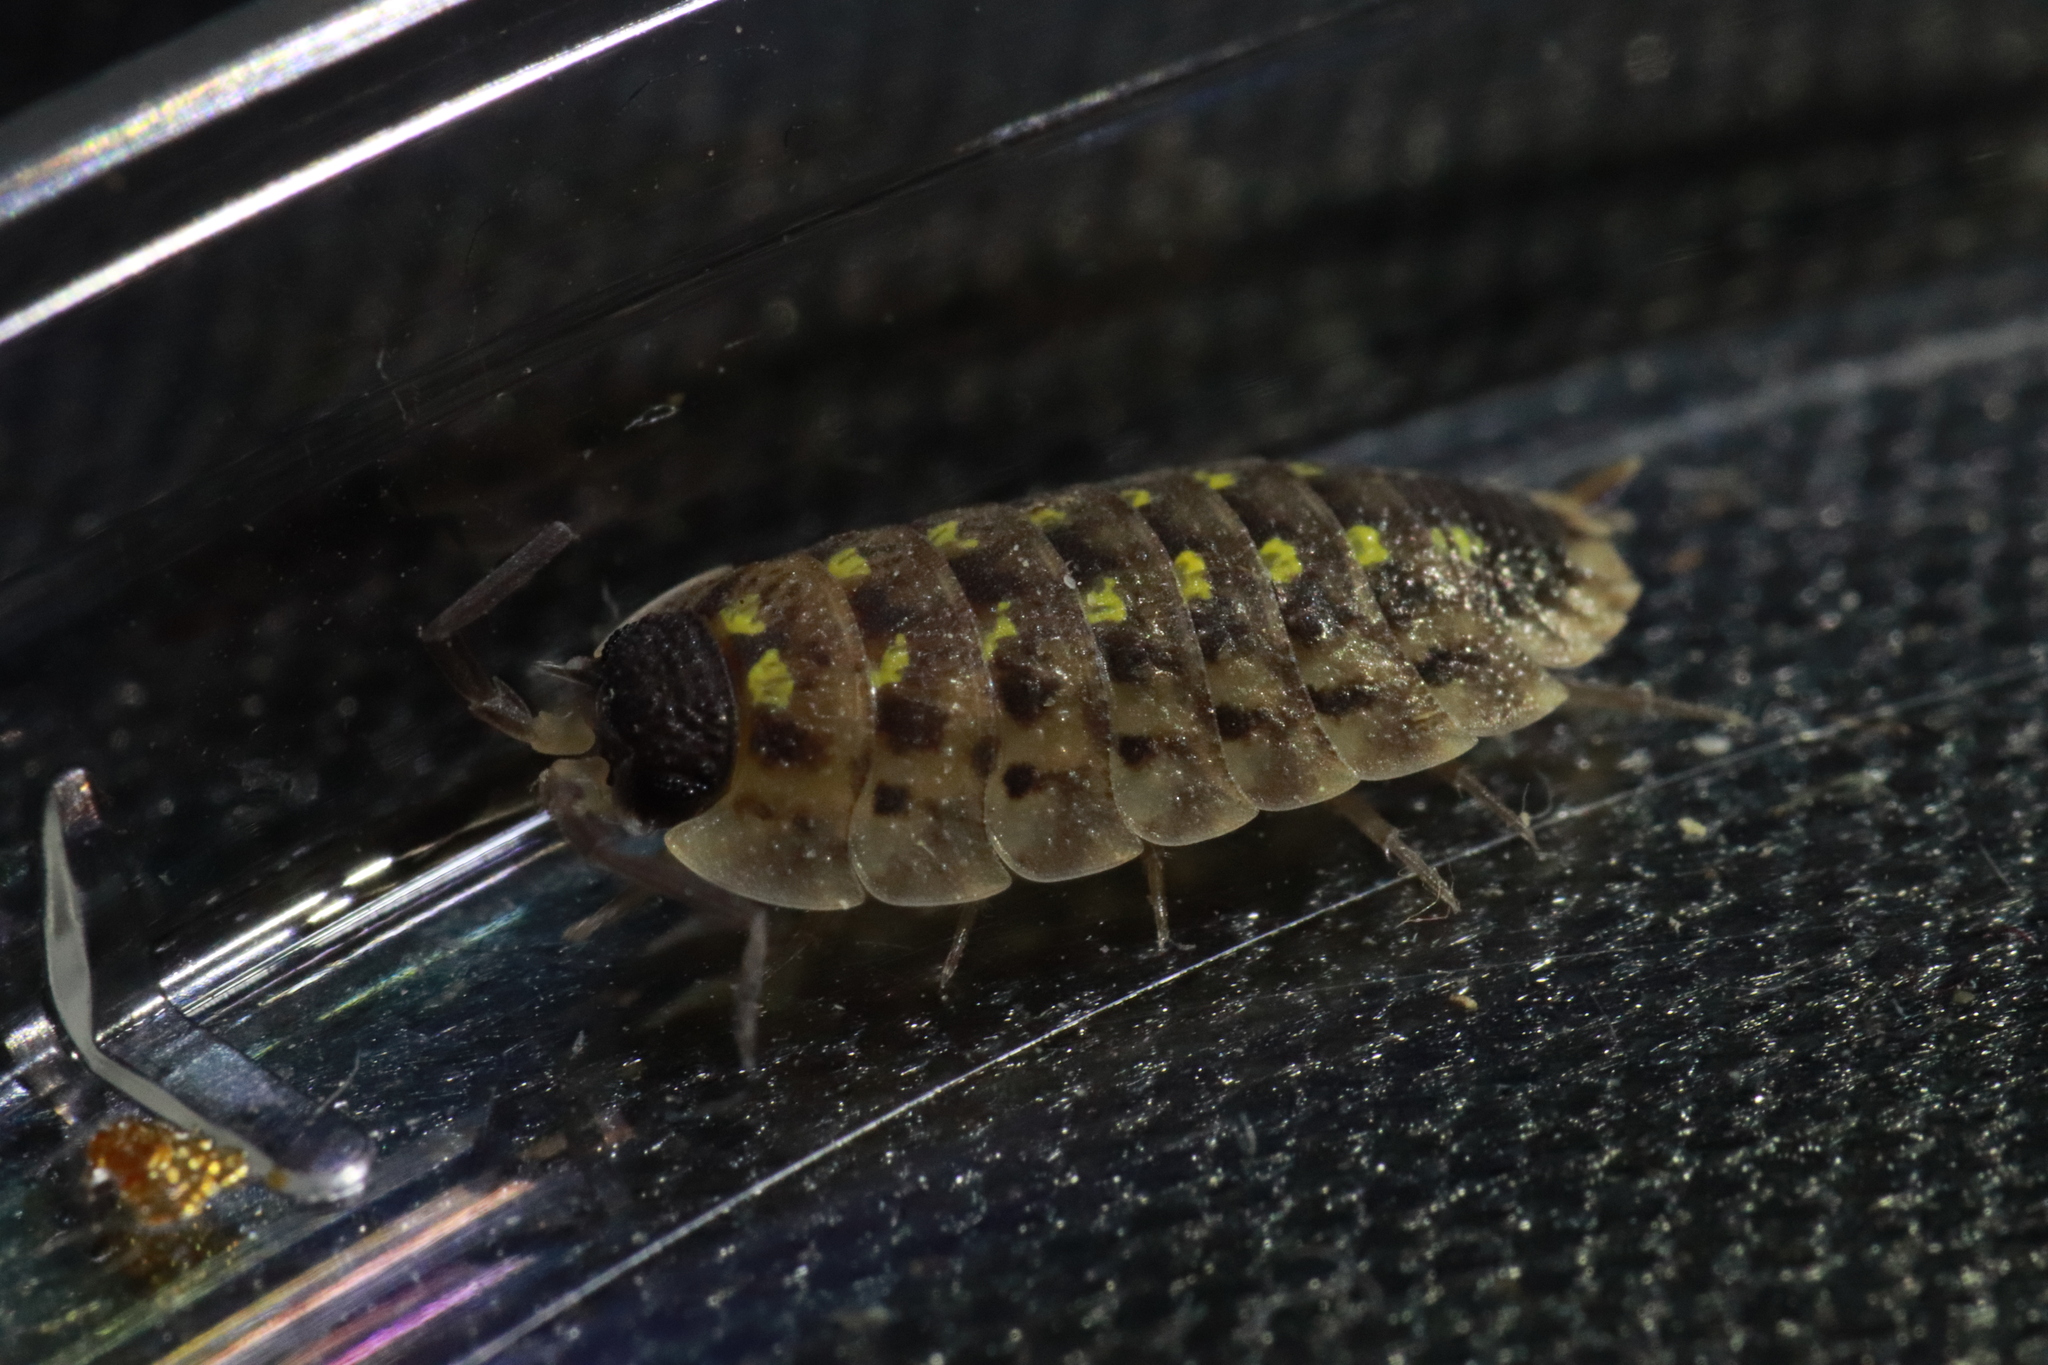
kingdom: Animalia
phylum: Arthropoda
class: Malacostraca
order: Isopoda
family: Porcellionidae
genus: Porcellio
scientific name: Porcellio spinicornis
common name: Painted woodlouse
